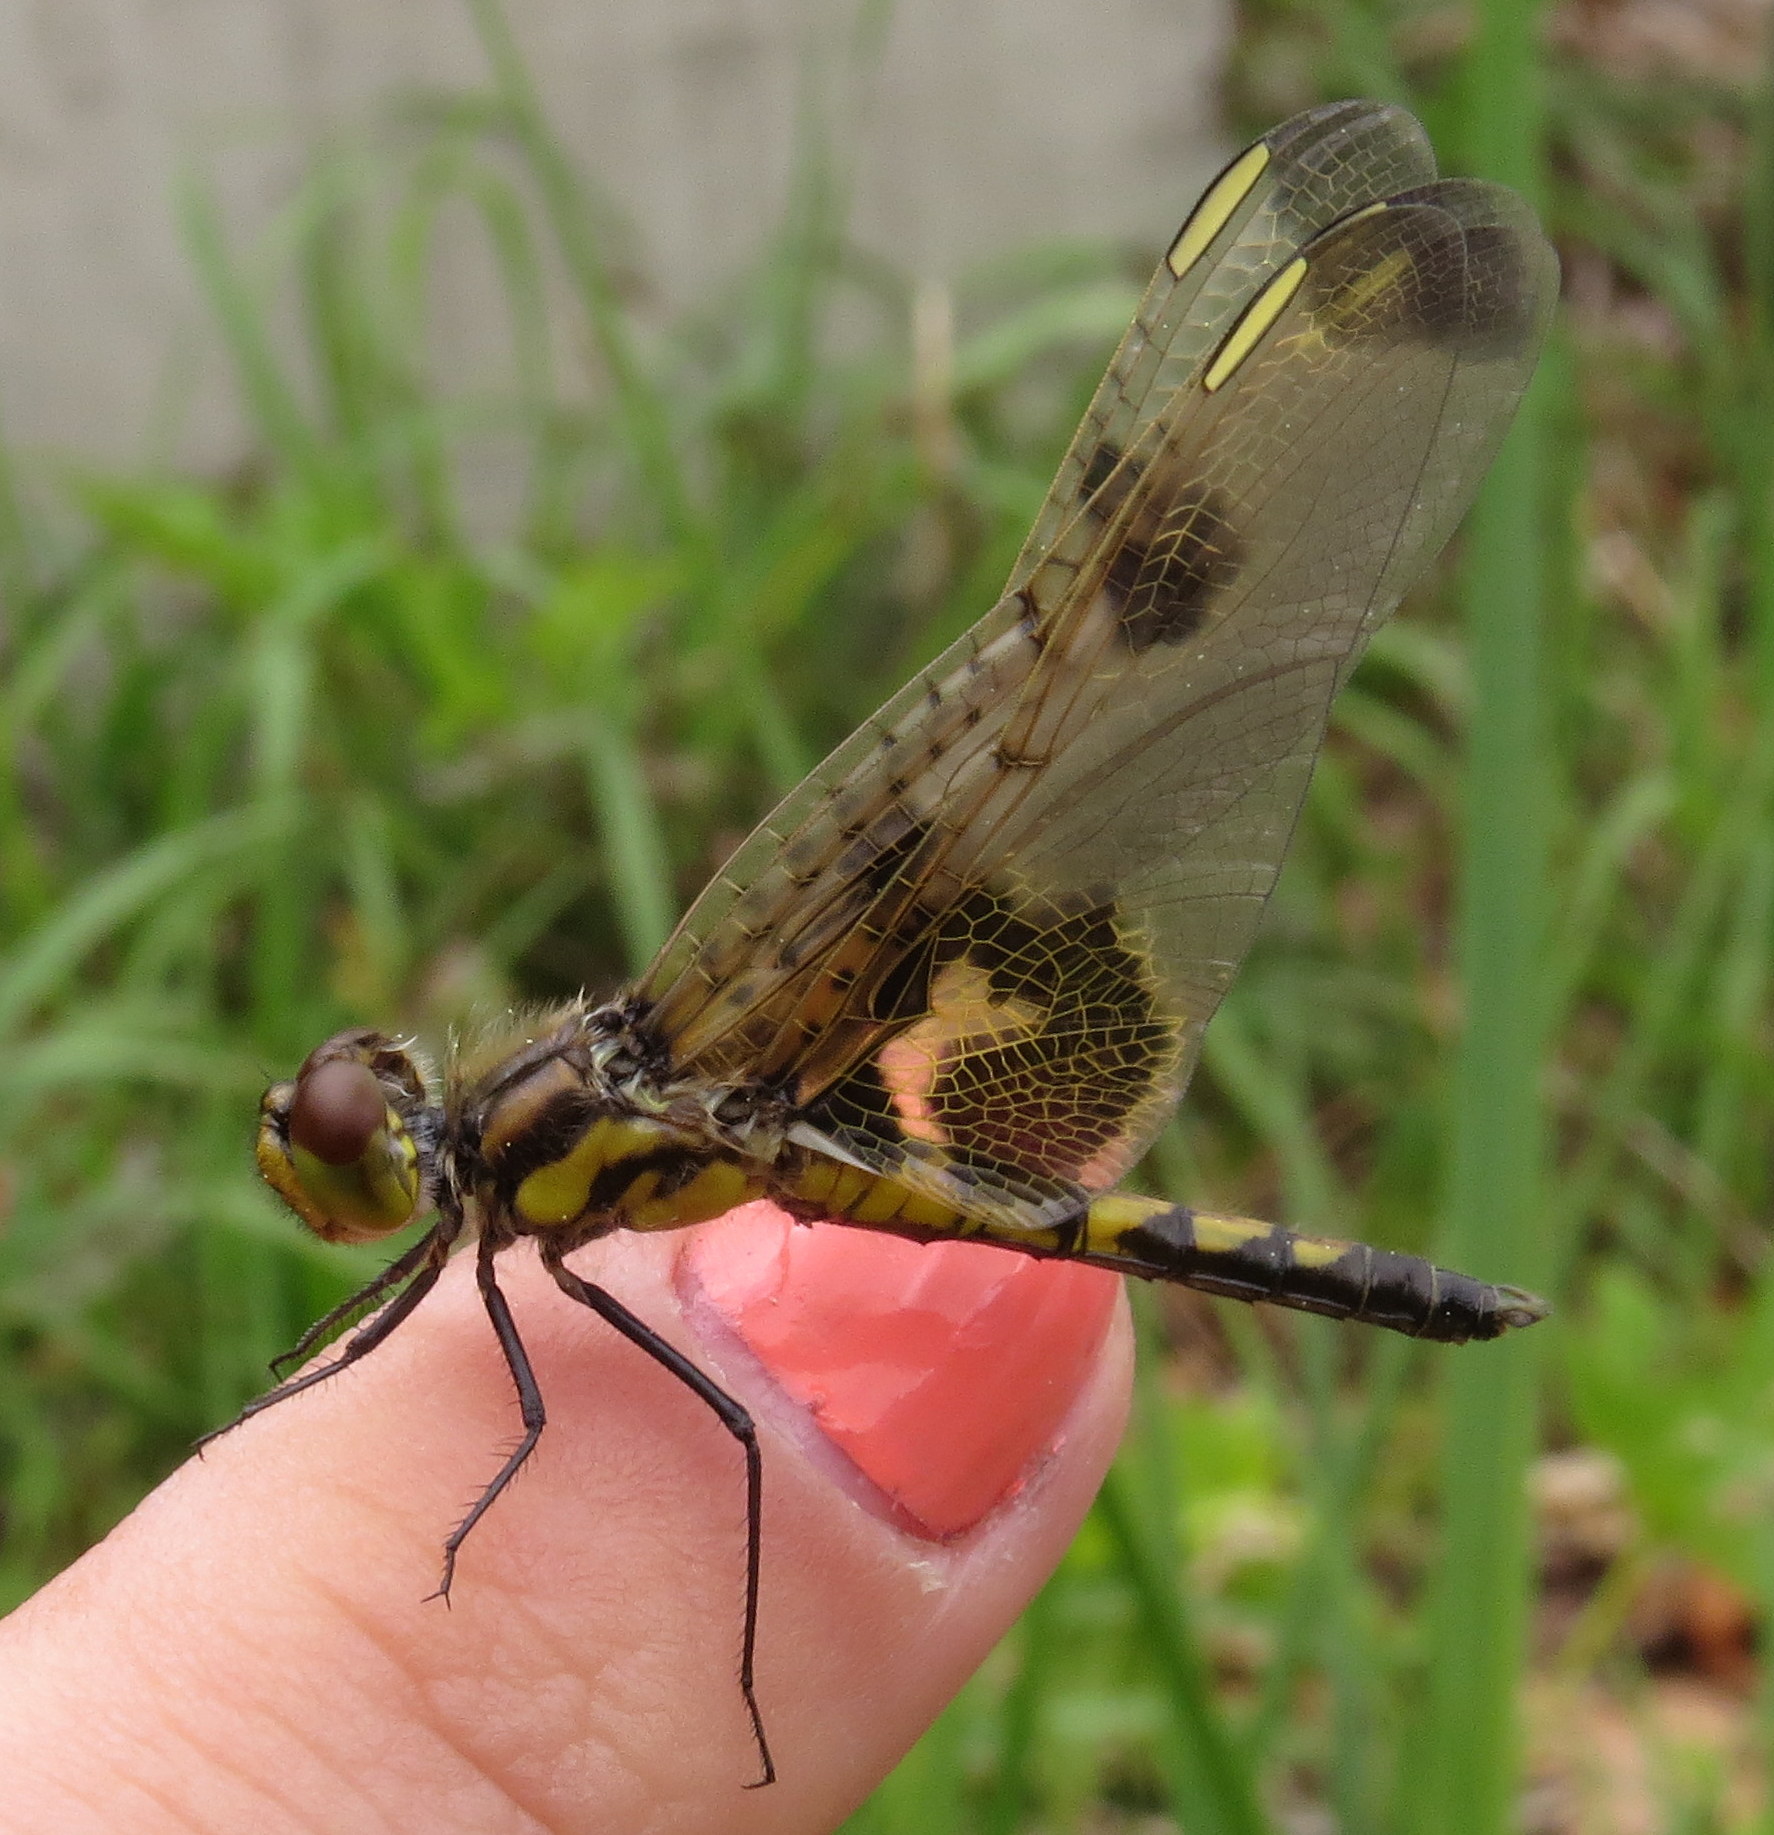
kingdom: Animalia
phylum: Arthropoda
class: Insecta
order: Odonata
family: Libellulidae
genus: Celithemis
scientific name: Celithemis elisa
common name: Calico pennant
